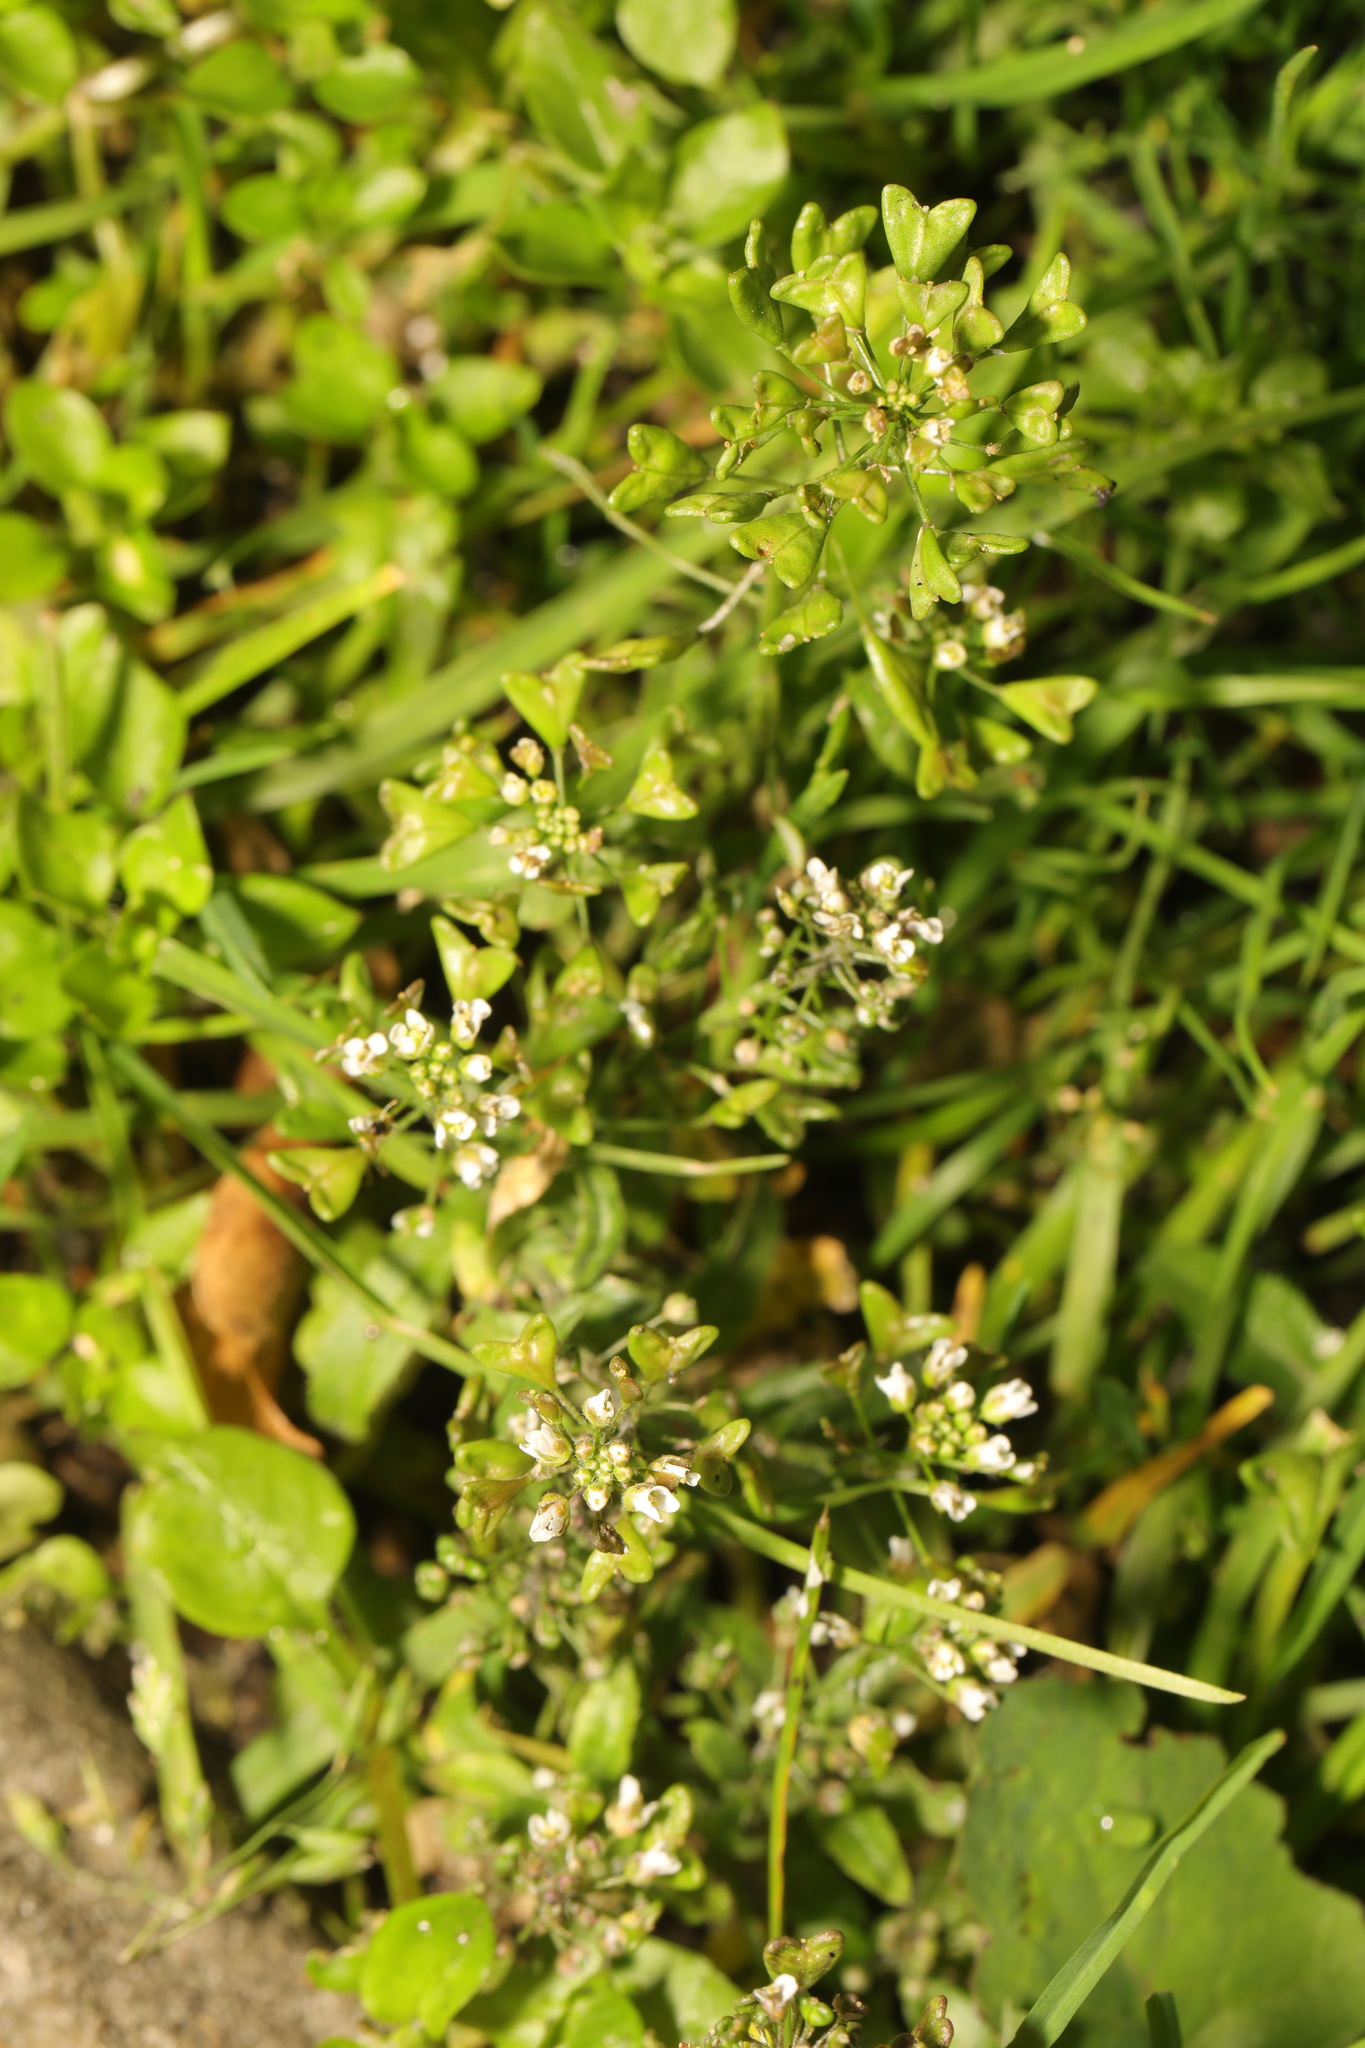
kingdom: Plantae
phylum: Tracheophyta
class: Magnoliopsida
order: Brassicales
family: Brassicaceae
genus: Capsella
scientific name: Capsella bursa-pastoris
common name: Shepherd's purse
